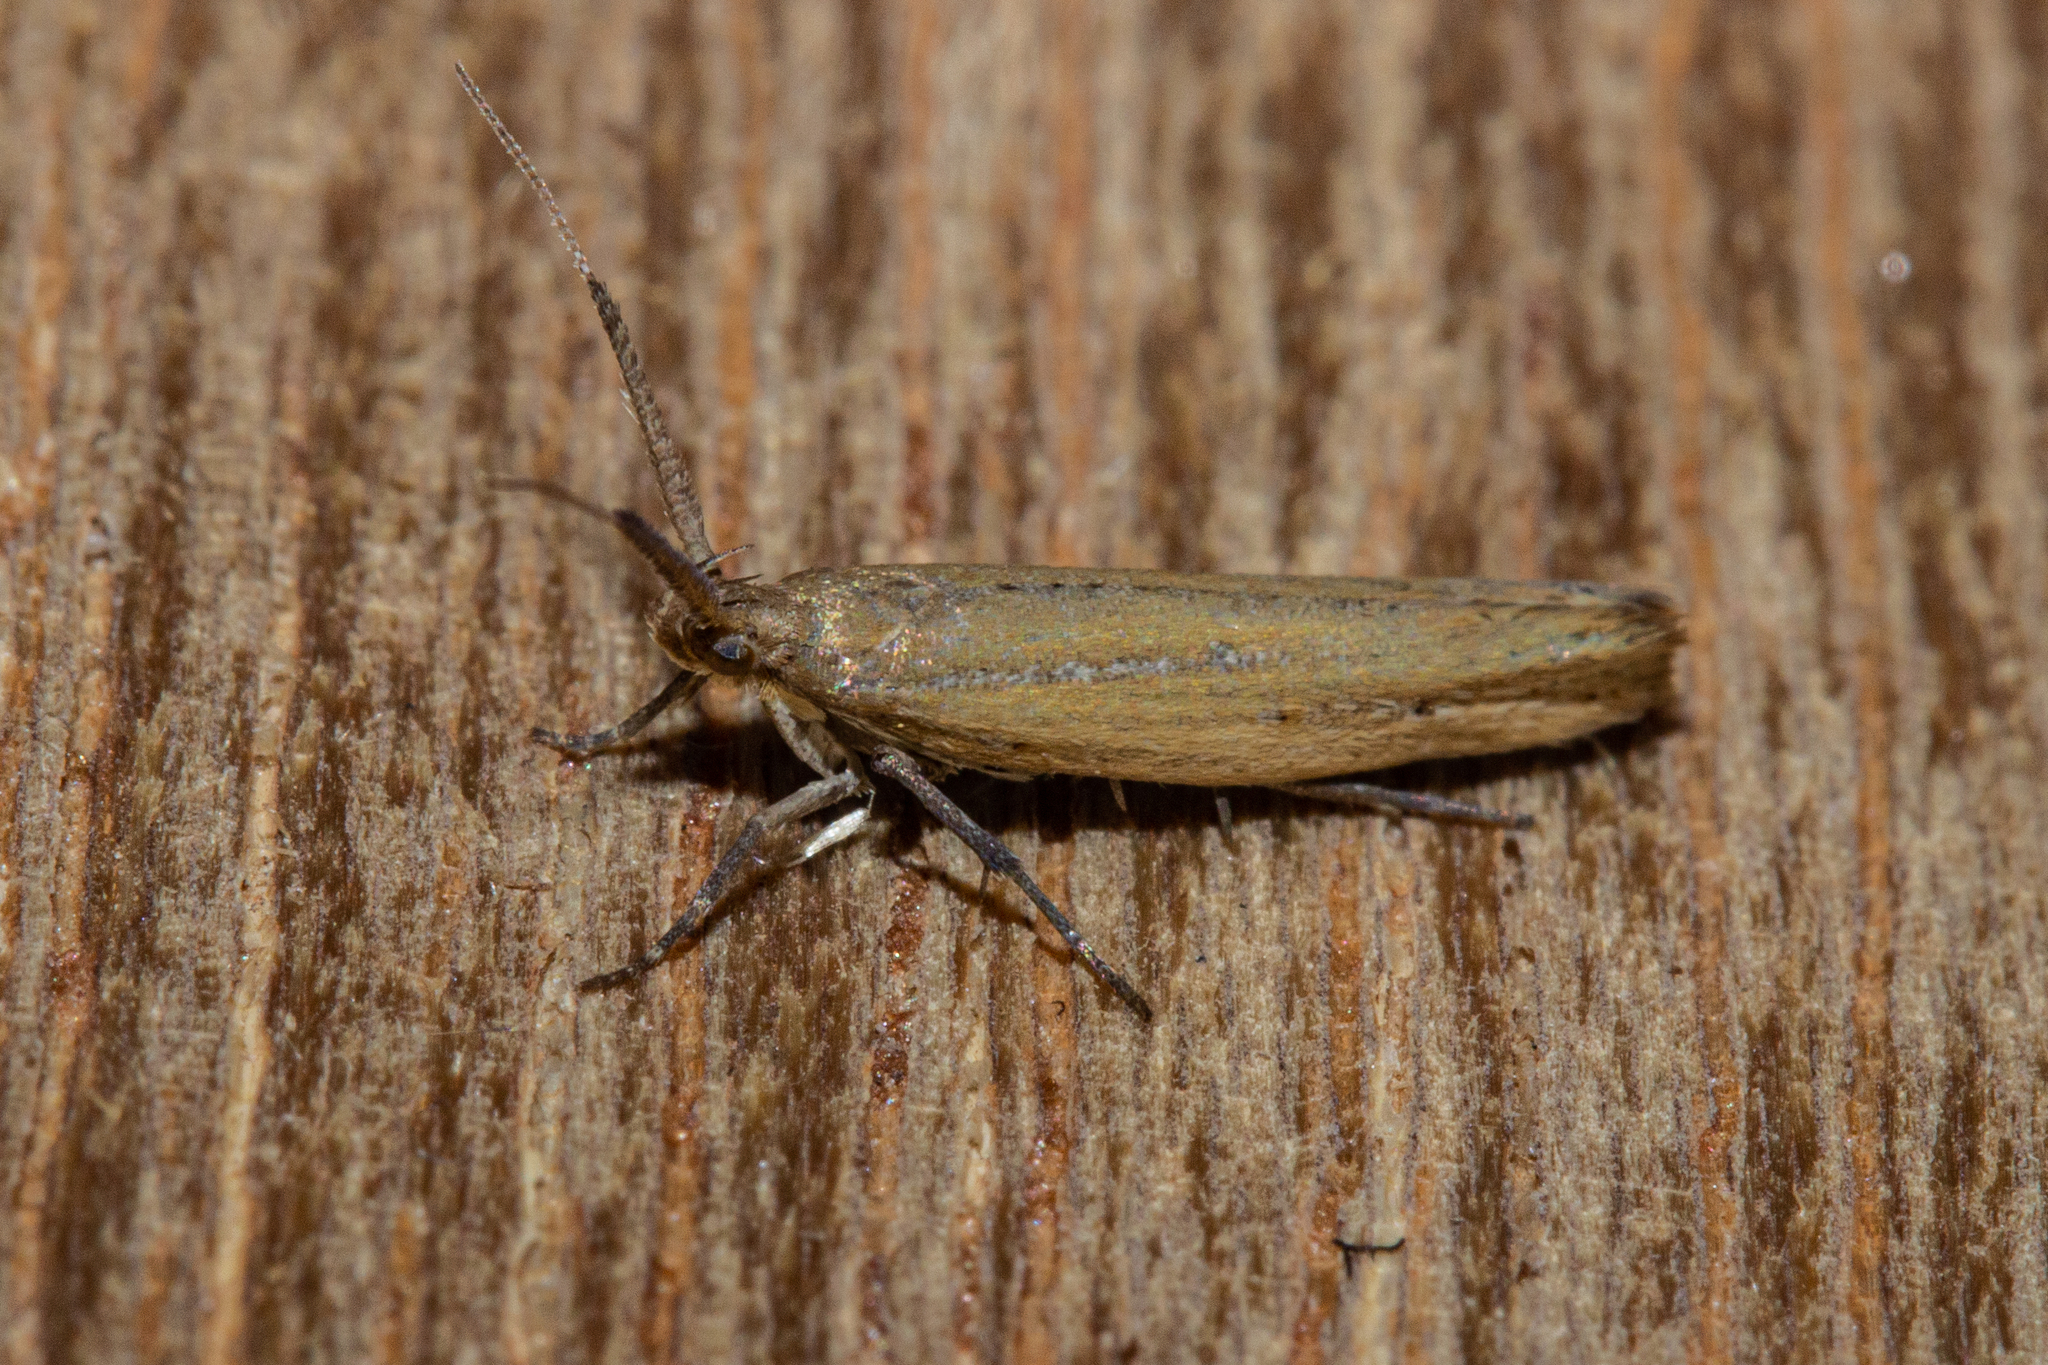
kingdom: Animalia
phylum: Arthropoda
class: Insecta
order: Lepidoptera
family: Plutellidae
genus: Phylacodes
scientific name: Phylacodes cauta
